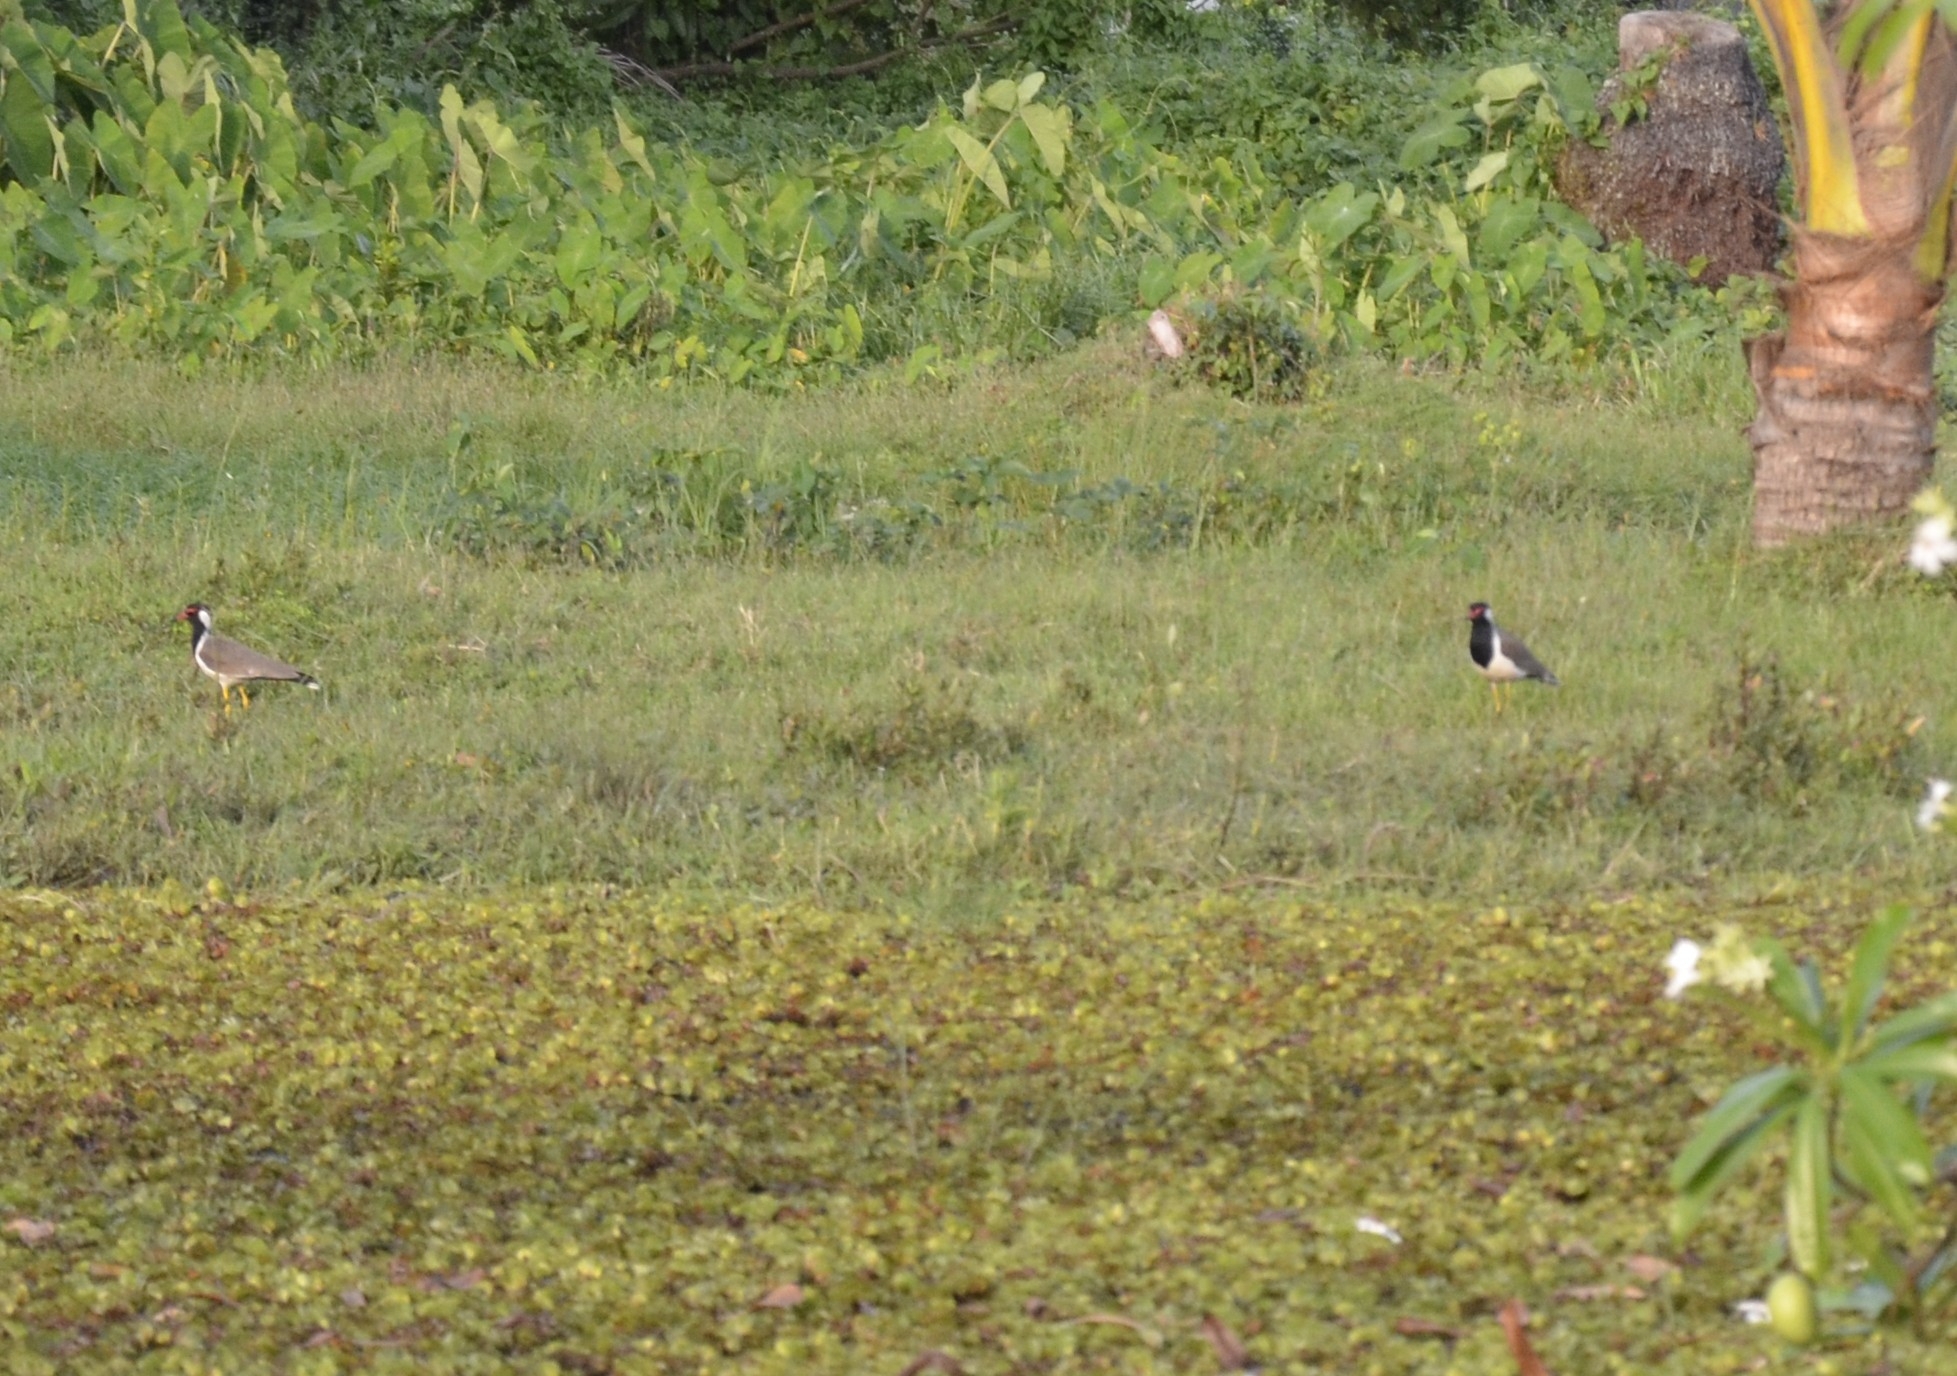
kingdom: Animalia
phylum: Chordata
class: Aves
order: Charadriiformes
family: Charadriidae
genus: Vanellus
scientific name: Vanellus indicus
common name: Red-wattled lapwing
